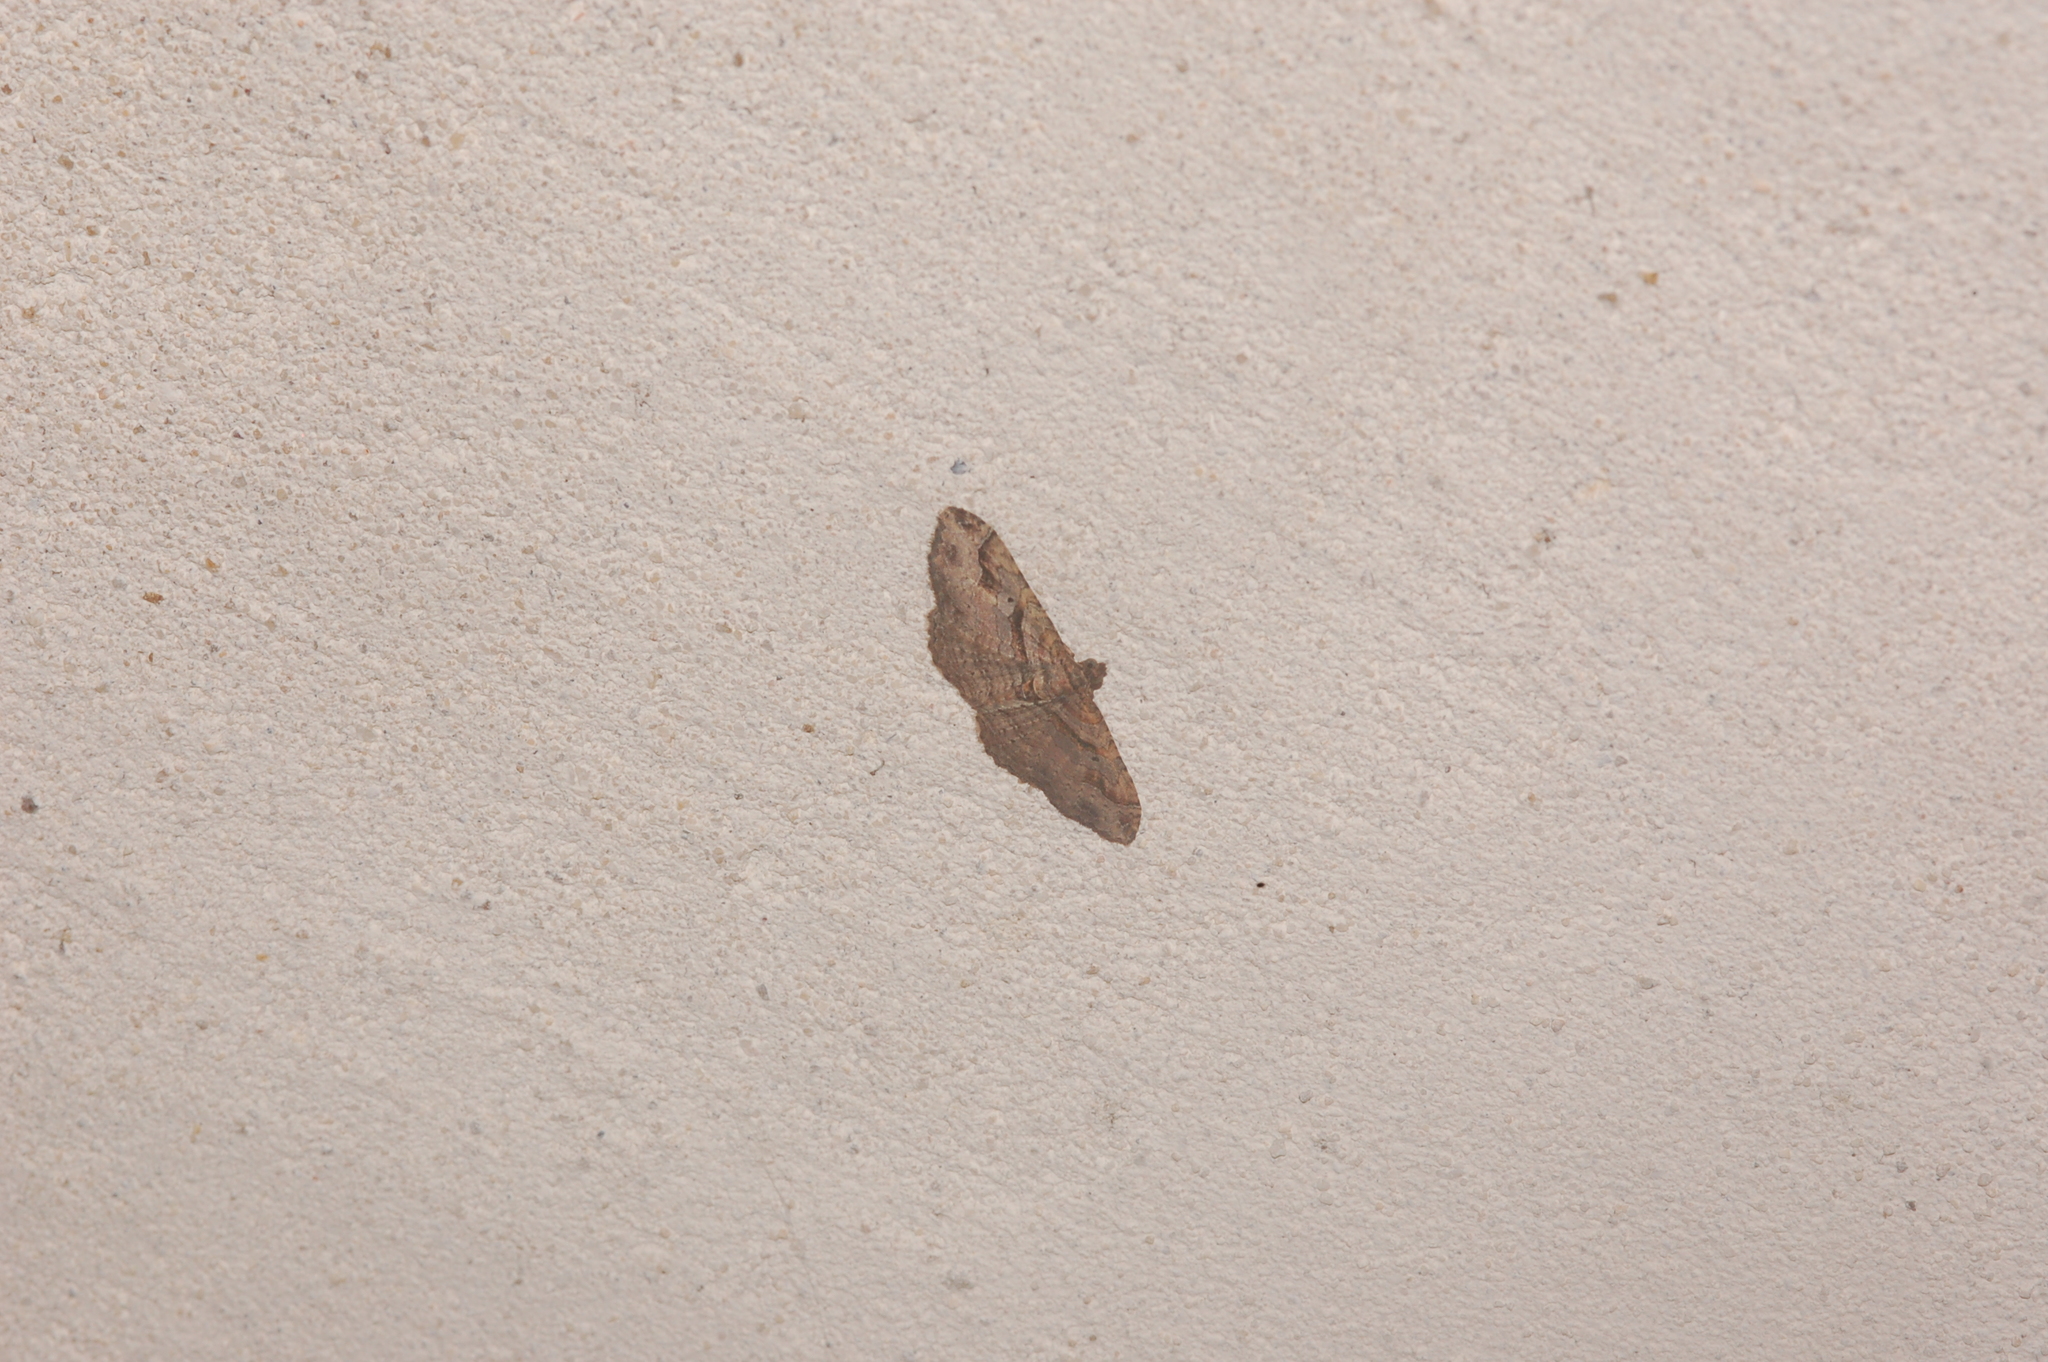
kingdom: Animalia
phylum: Arthropoda
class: Insecta
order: Lepidoptera
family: Geometridae
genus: Costaconvexa
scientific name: Costaconvexa centrostrigaria
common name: Bent-line carpet
